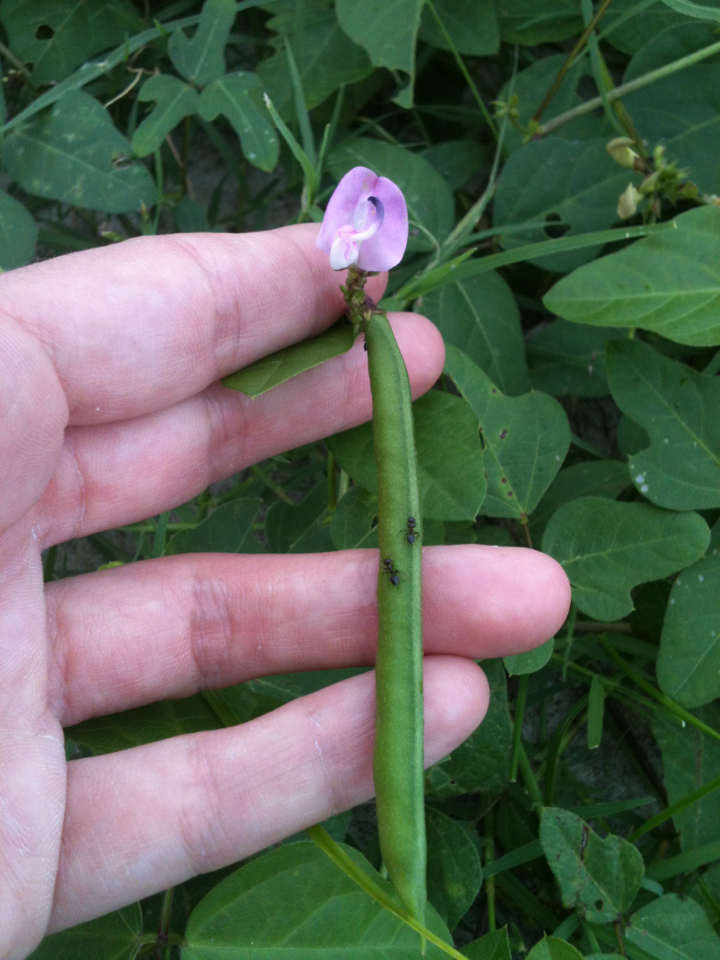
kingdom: Plantae
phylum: Tracheophyta
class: Magnoliopsida
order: Fabales
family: Fabaceae
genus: Strophostyles
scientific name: Strophostyles helvola
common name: Trailing wild bean
